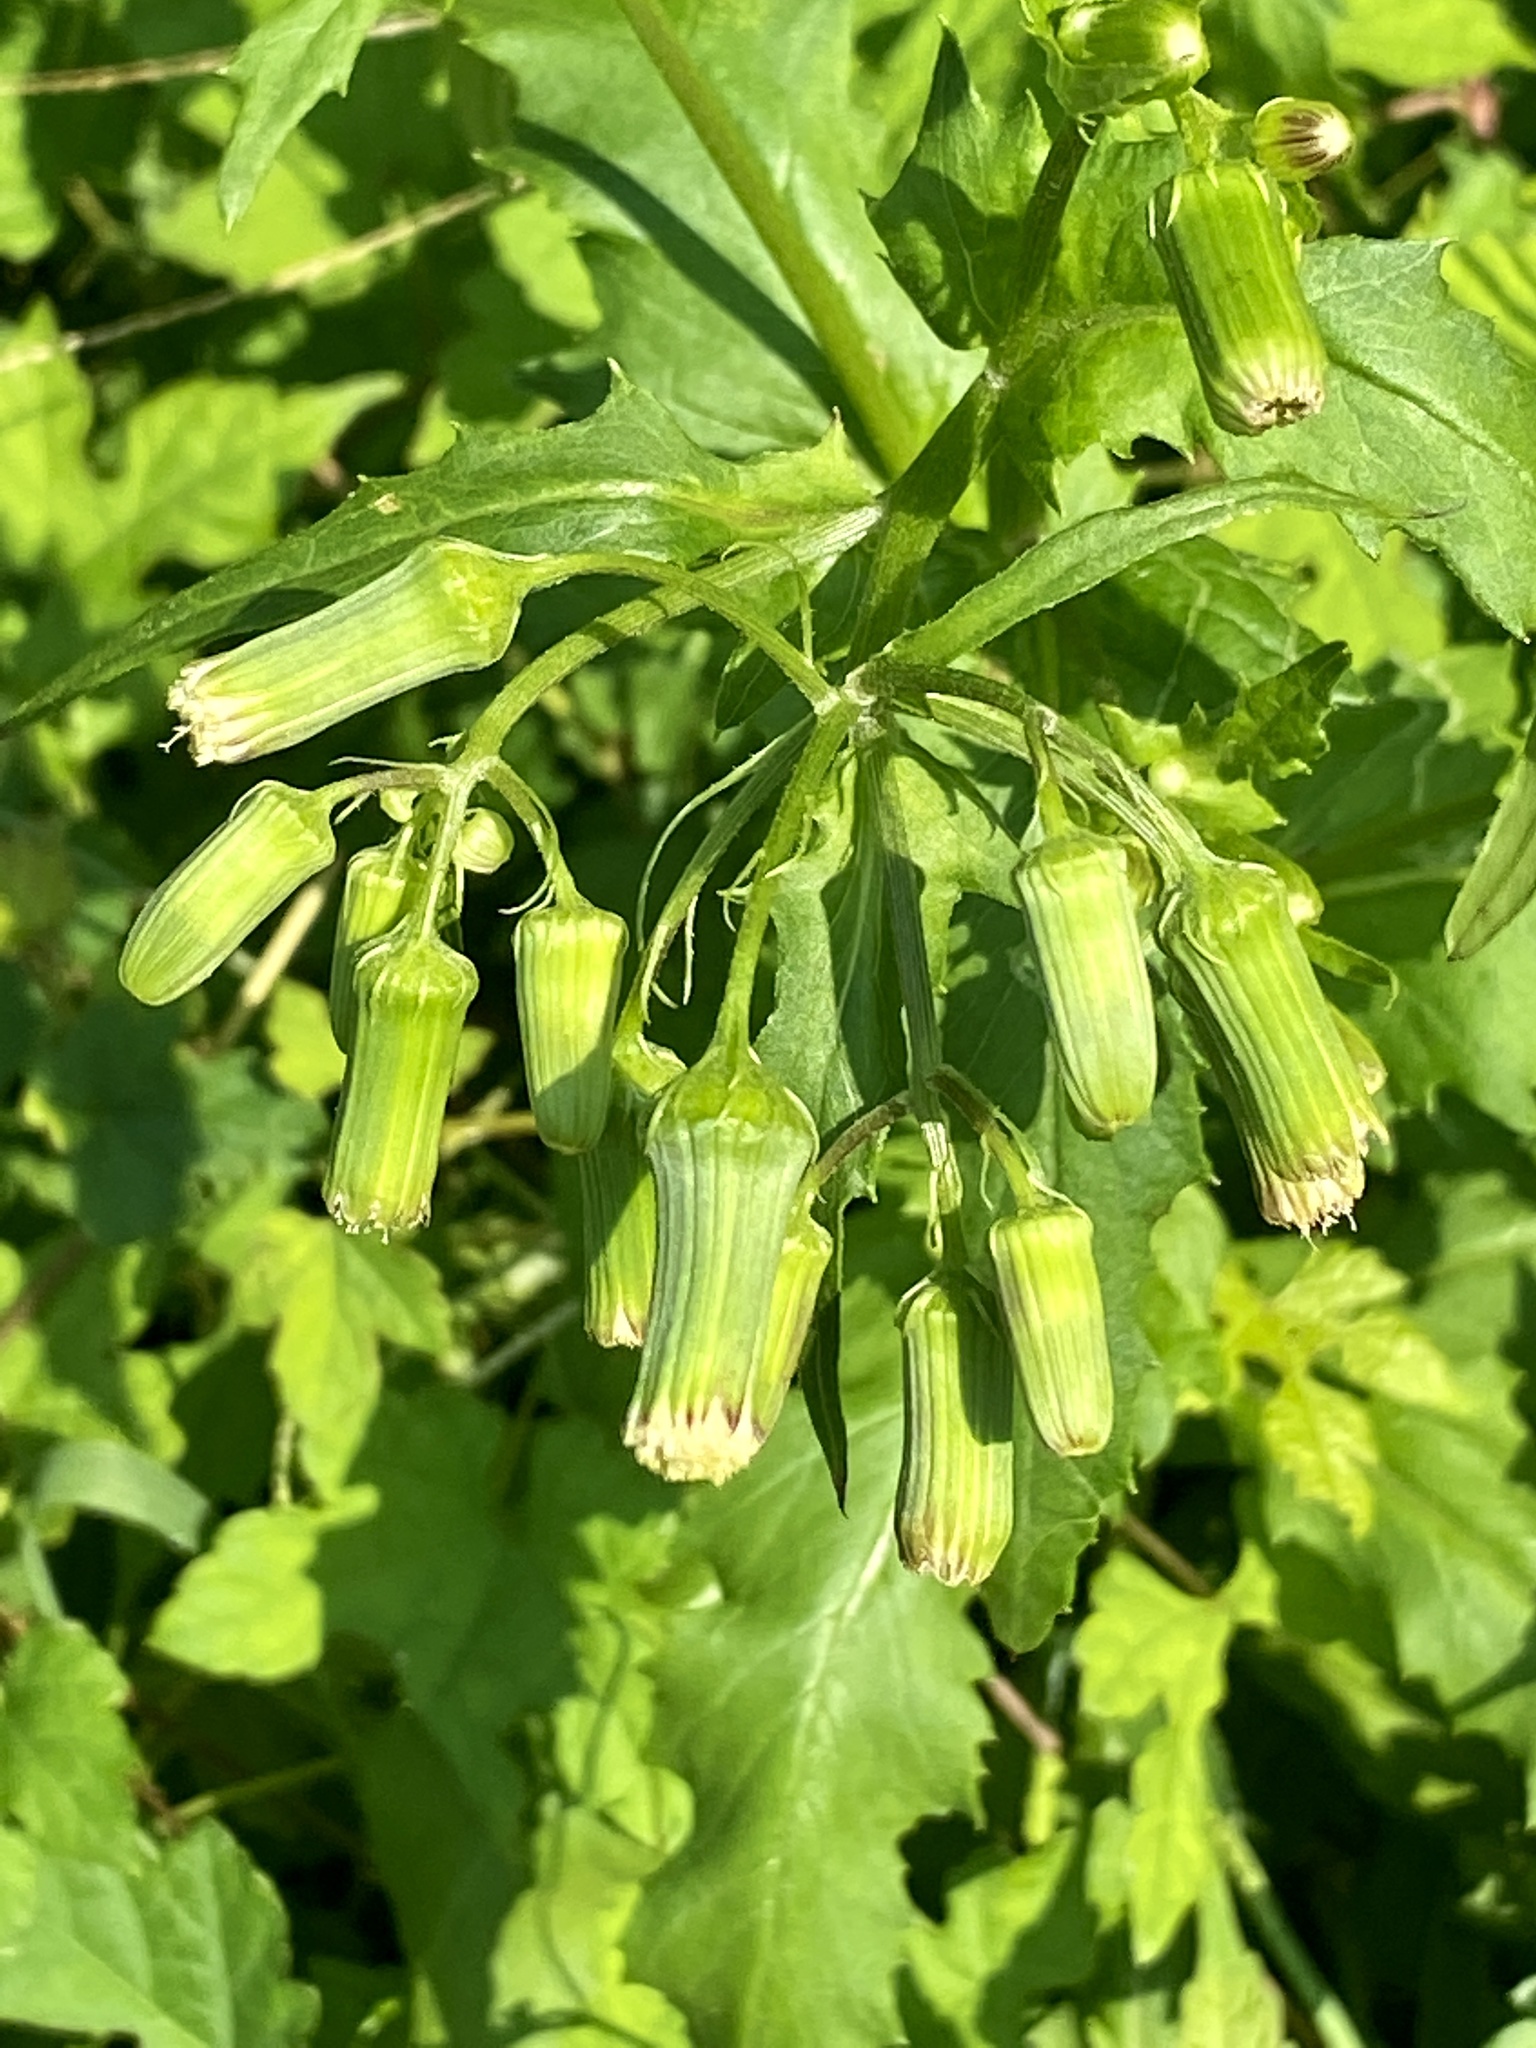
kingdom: Plantae
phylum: Tracheophyta
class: Magnoliopsida
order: Asterales
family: Asteraceae
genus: Erechtites
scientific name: Erechtites hieraciifolius
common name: American burnweed
